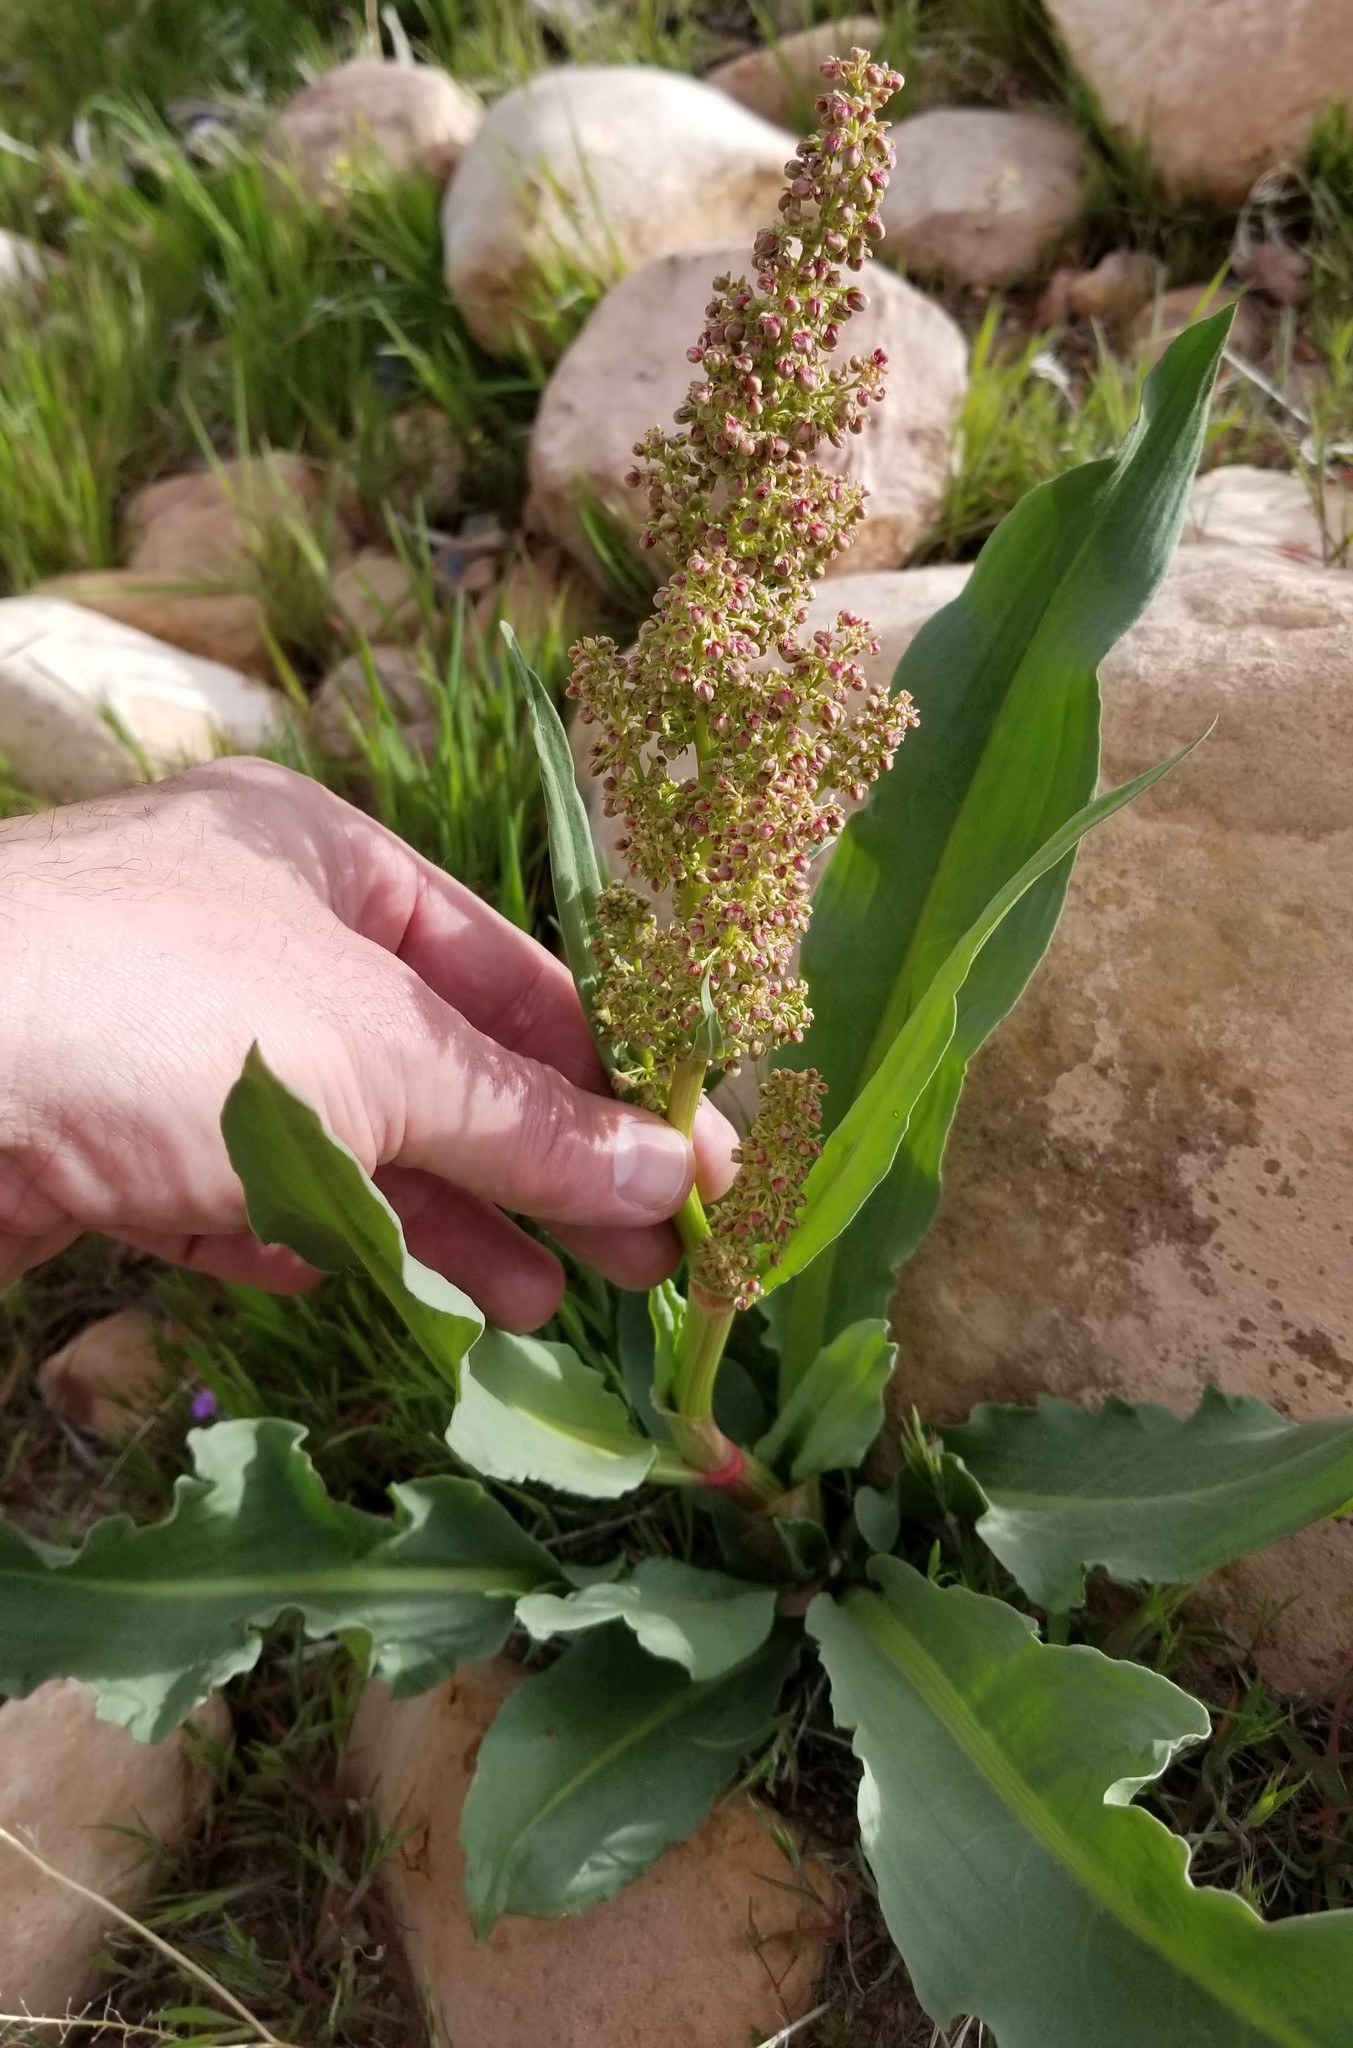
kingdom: Plantae
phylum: Tracheophyta
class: Magnoliopsida
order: Caryophyllales
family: Polygonaceae
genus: Rumex
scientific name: Rumex hymenosepalus
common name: Ganagra
